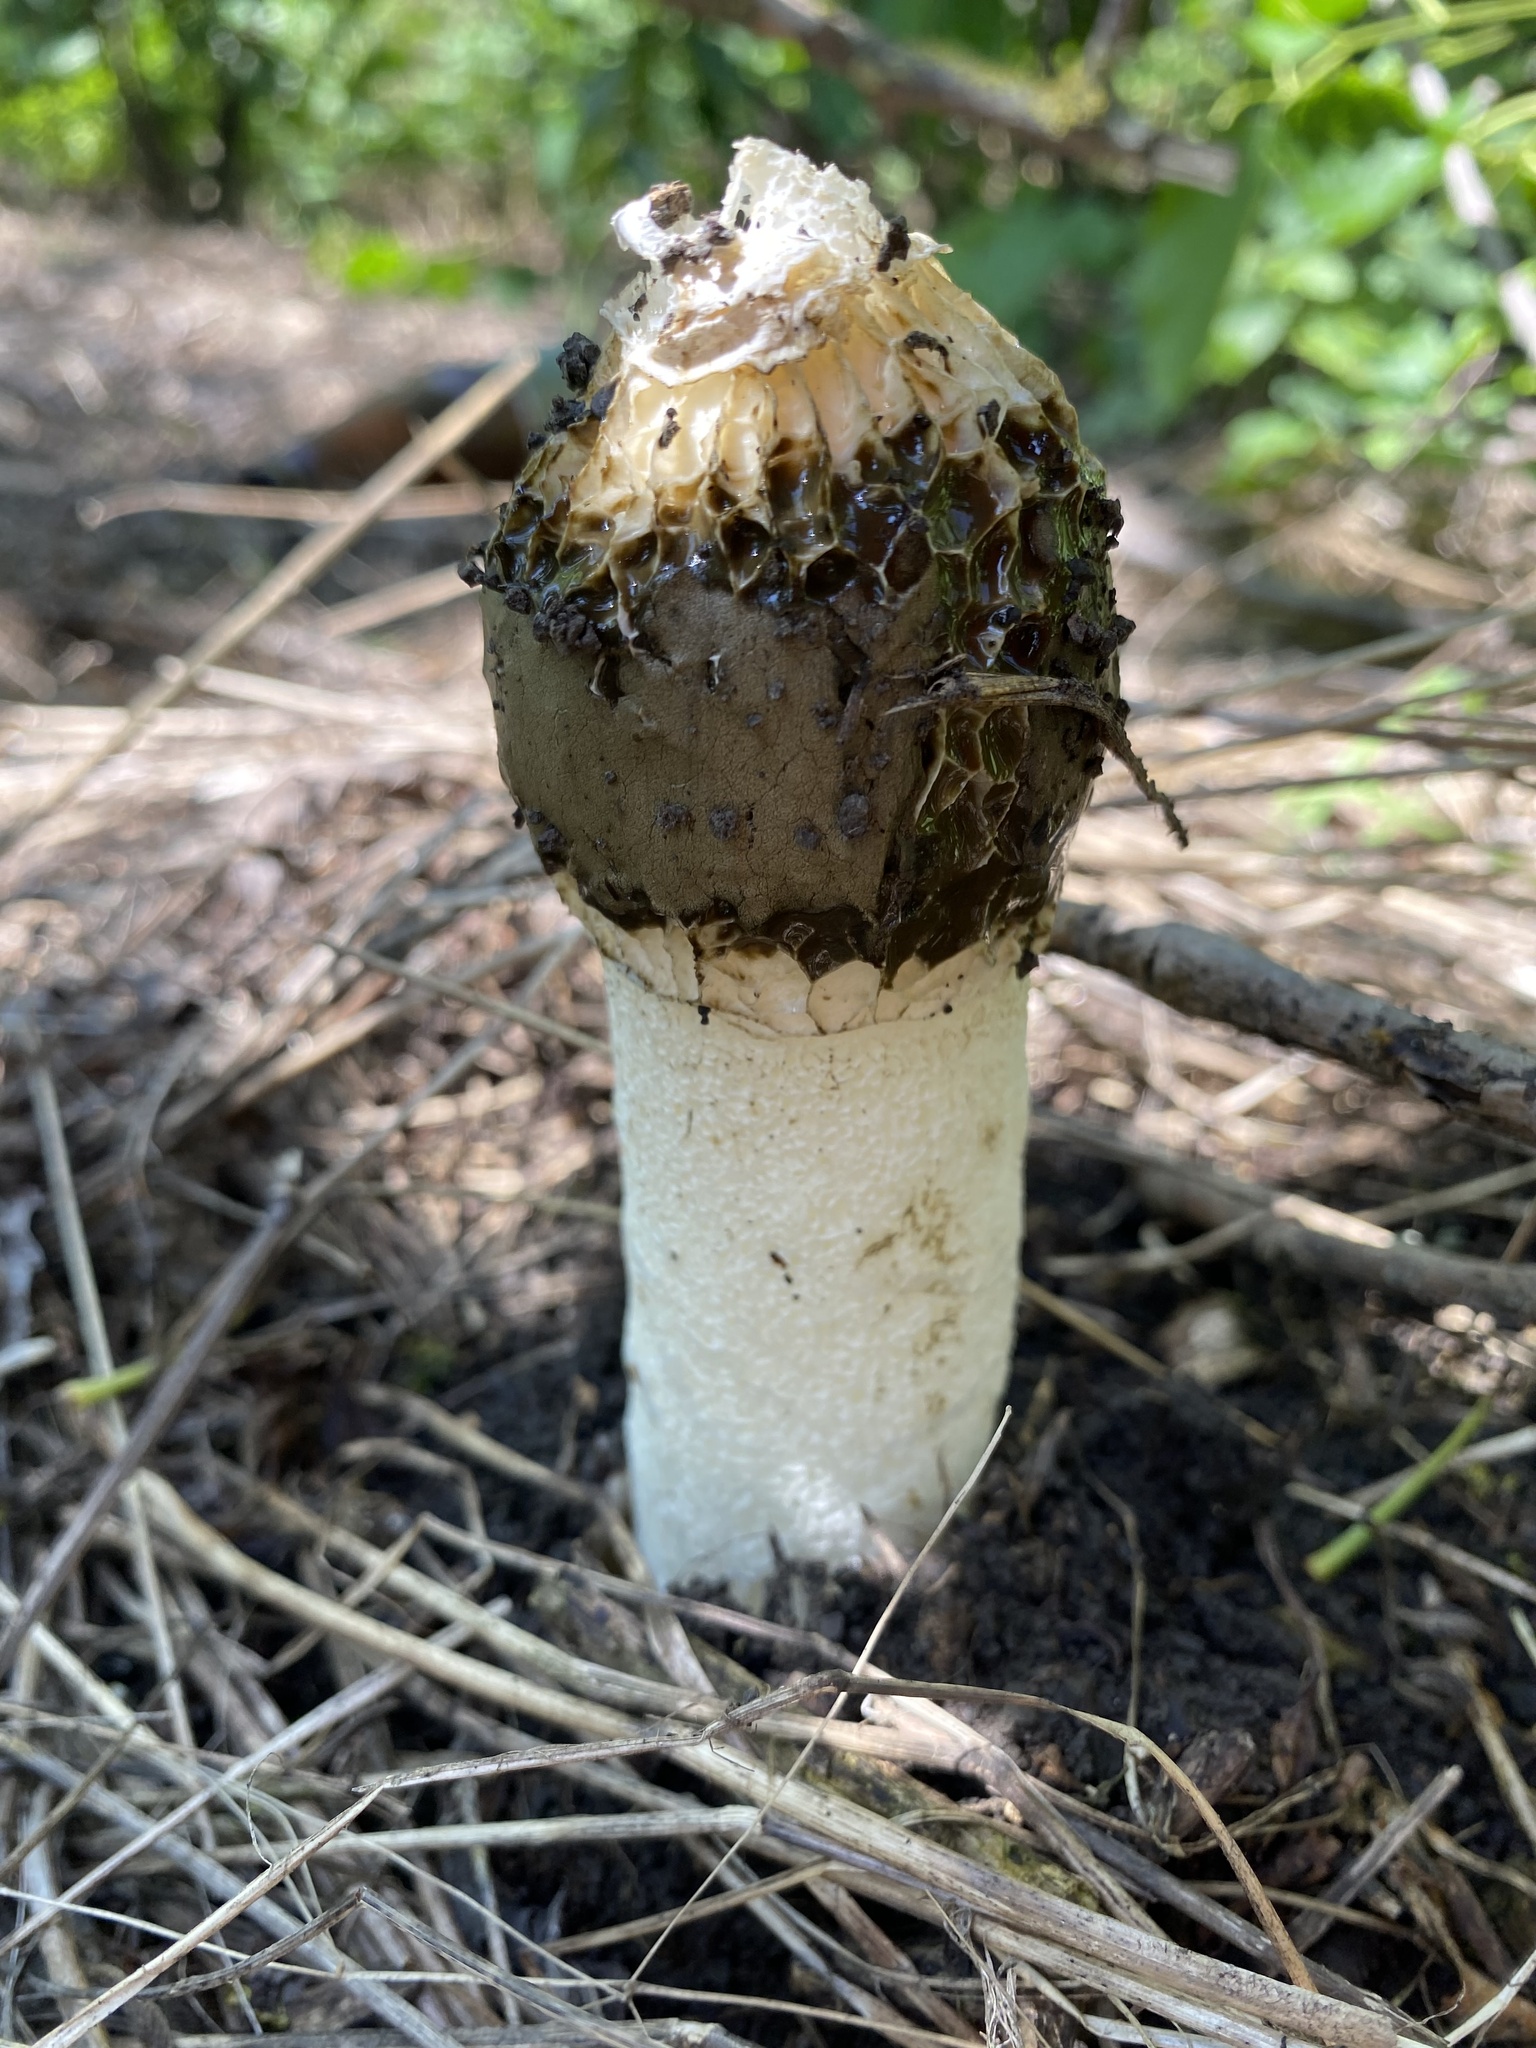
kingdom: Fungi
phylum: Basidiomycota
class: Agaricomycetes
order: Phallales
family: Phallaceae
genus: Phallus
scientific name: Phallus impudicus
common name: Common stinkhorn
